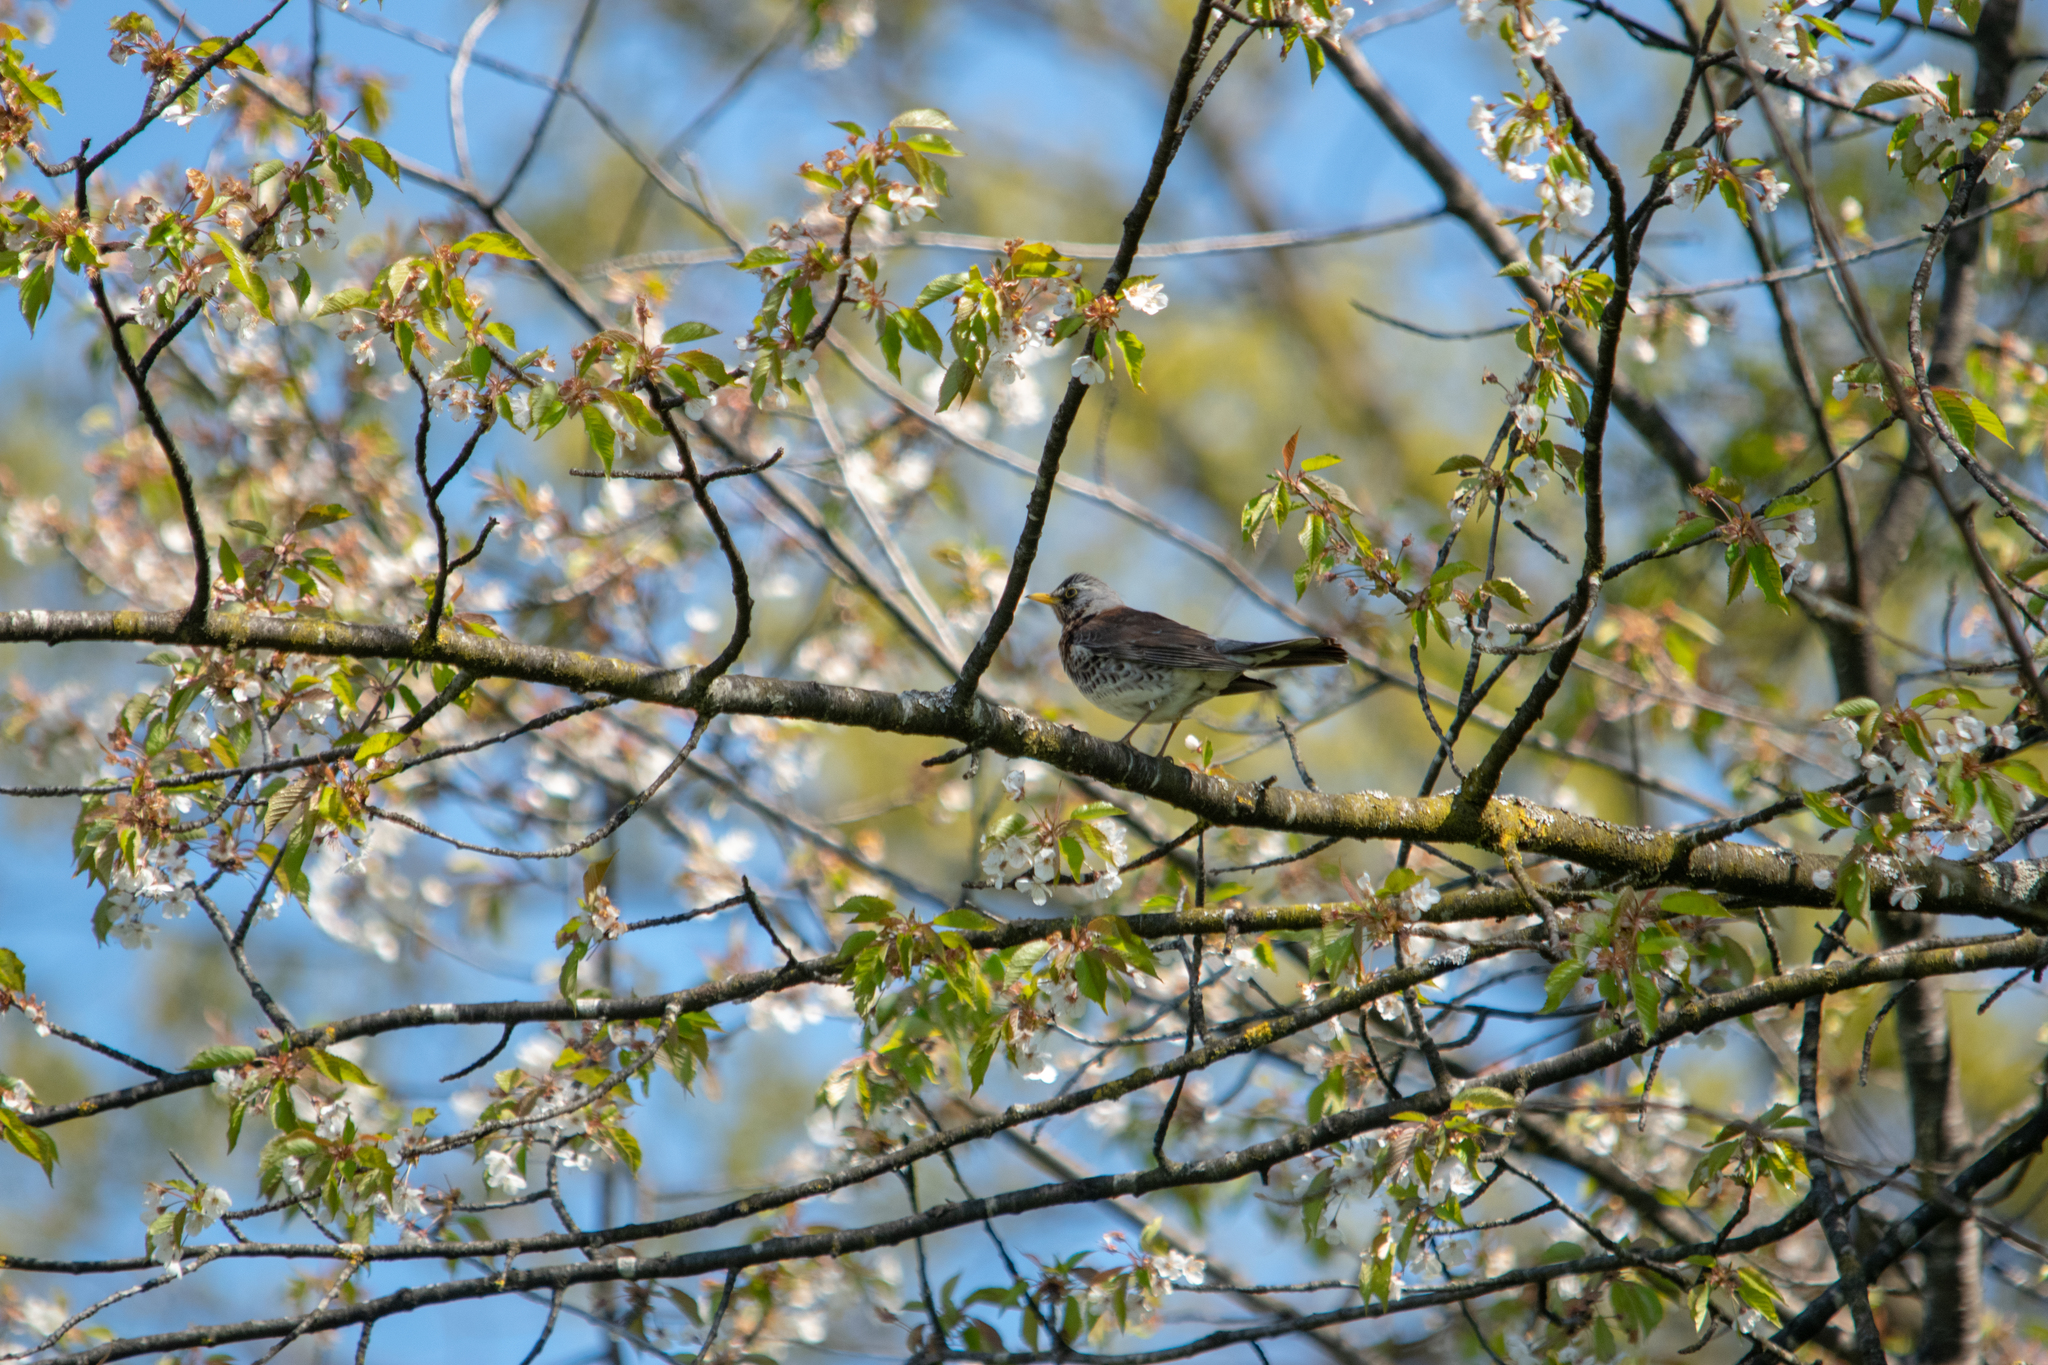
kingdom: Animalia
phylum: Chordata
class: Aves
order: Passeriformes
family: Turdidae
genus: Turdus
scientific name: Turdus pilaris
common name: Fieldfare
